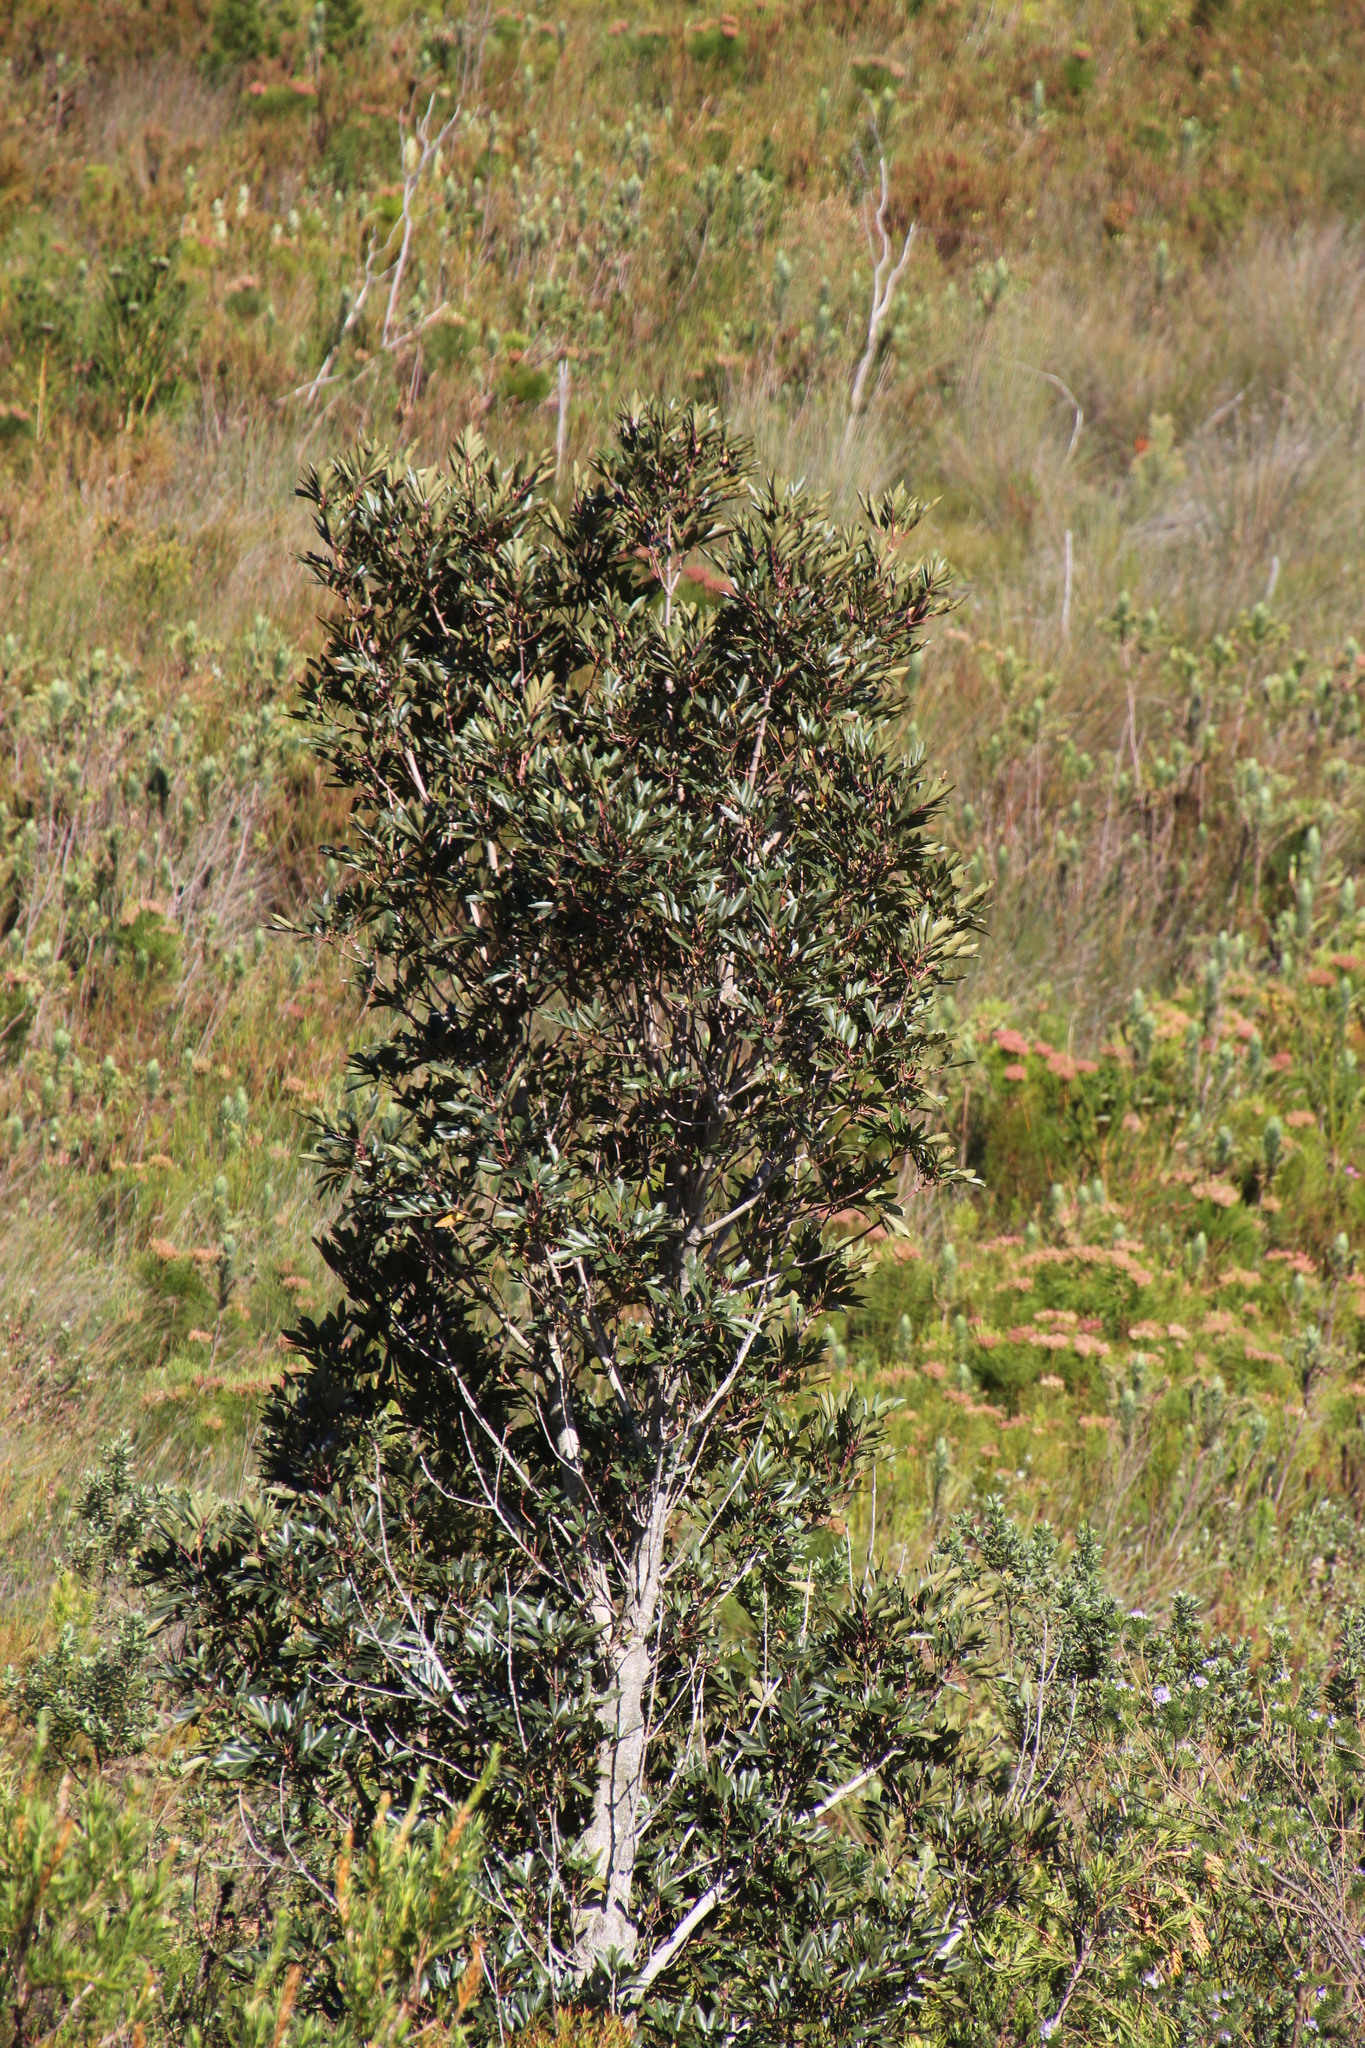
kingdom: Plantae
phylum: Tracheophyta
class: Magnoliopsida
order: Oxalidales
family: Cunoniaceae
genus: Cunonia
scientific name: Cunonia capensis
